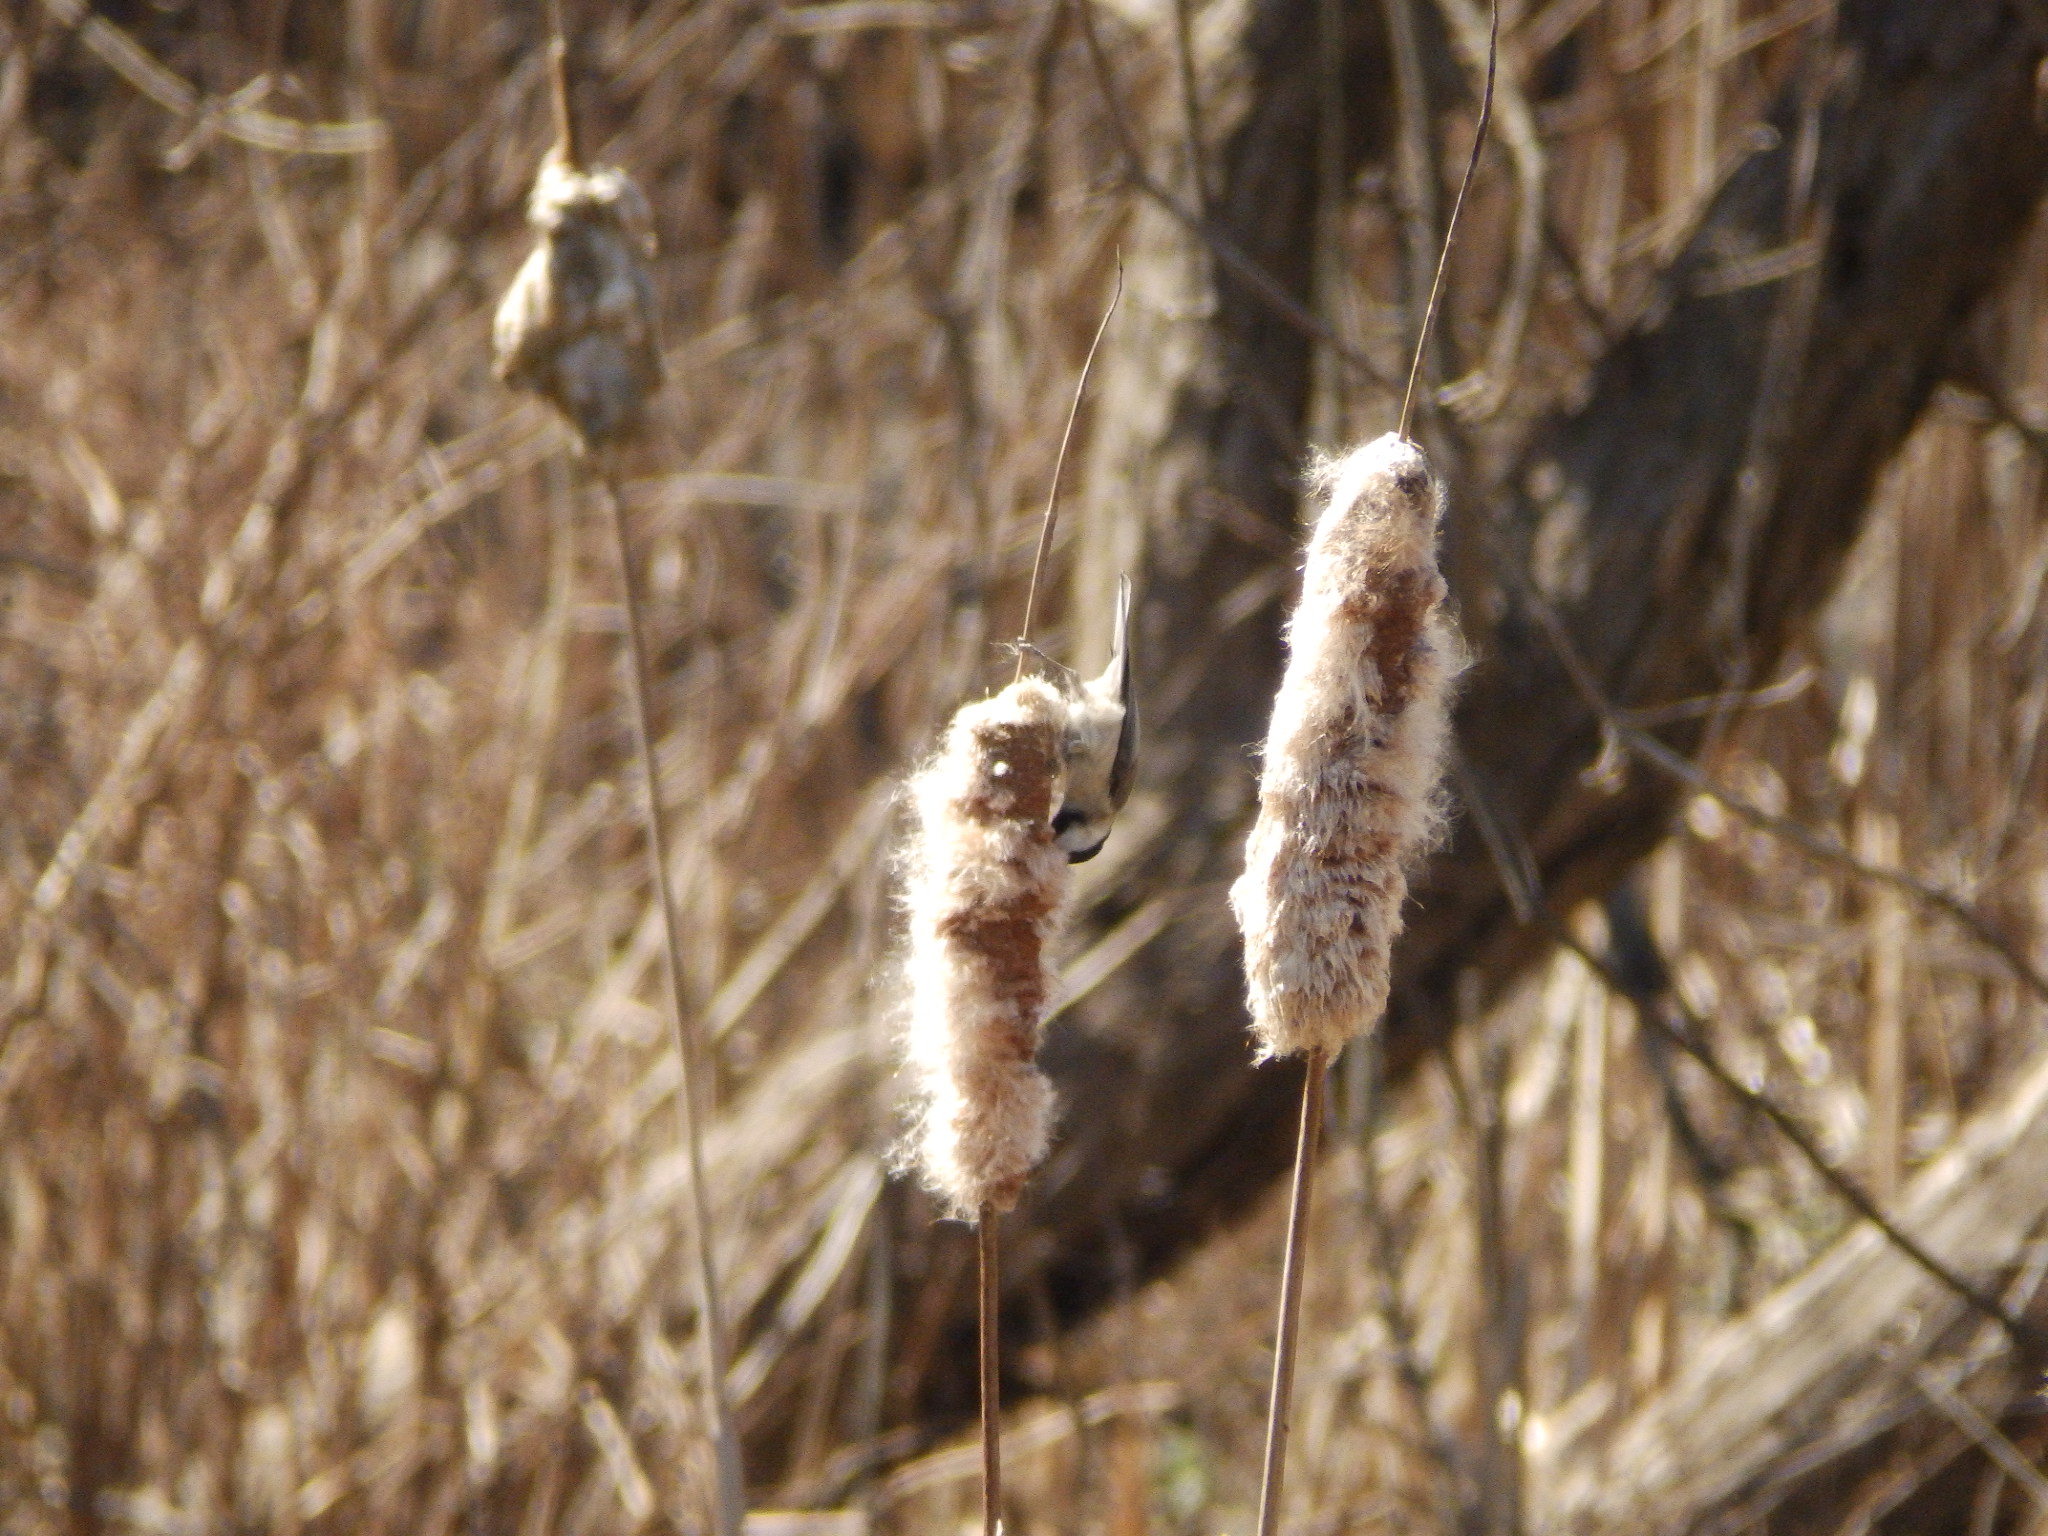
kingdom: Animalia
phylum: Chordata
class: Aves
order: Passeriformes
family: Paridae
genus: Poecile
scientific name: Poecile carolinensis
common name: Carolina chickadee
